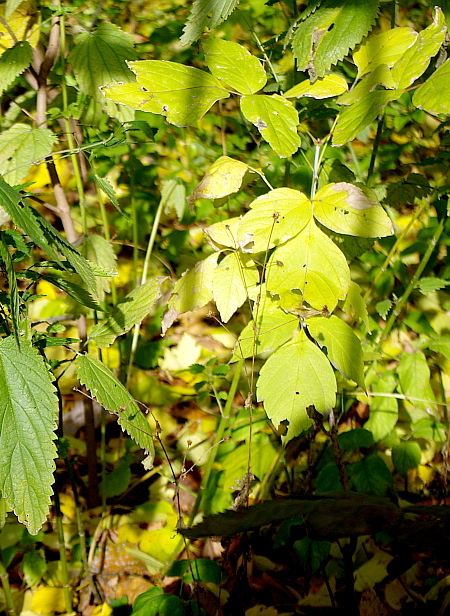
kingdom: Plantae
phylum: Tracheophyta
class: Magnoliopsida
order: Sapindales
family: Sapindaceae
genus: Acer
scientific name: Acer negundo
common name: Ashleaf maple
